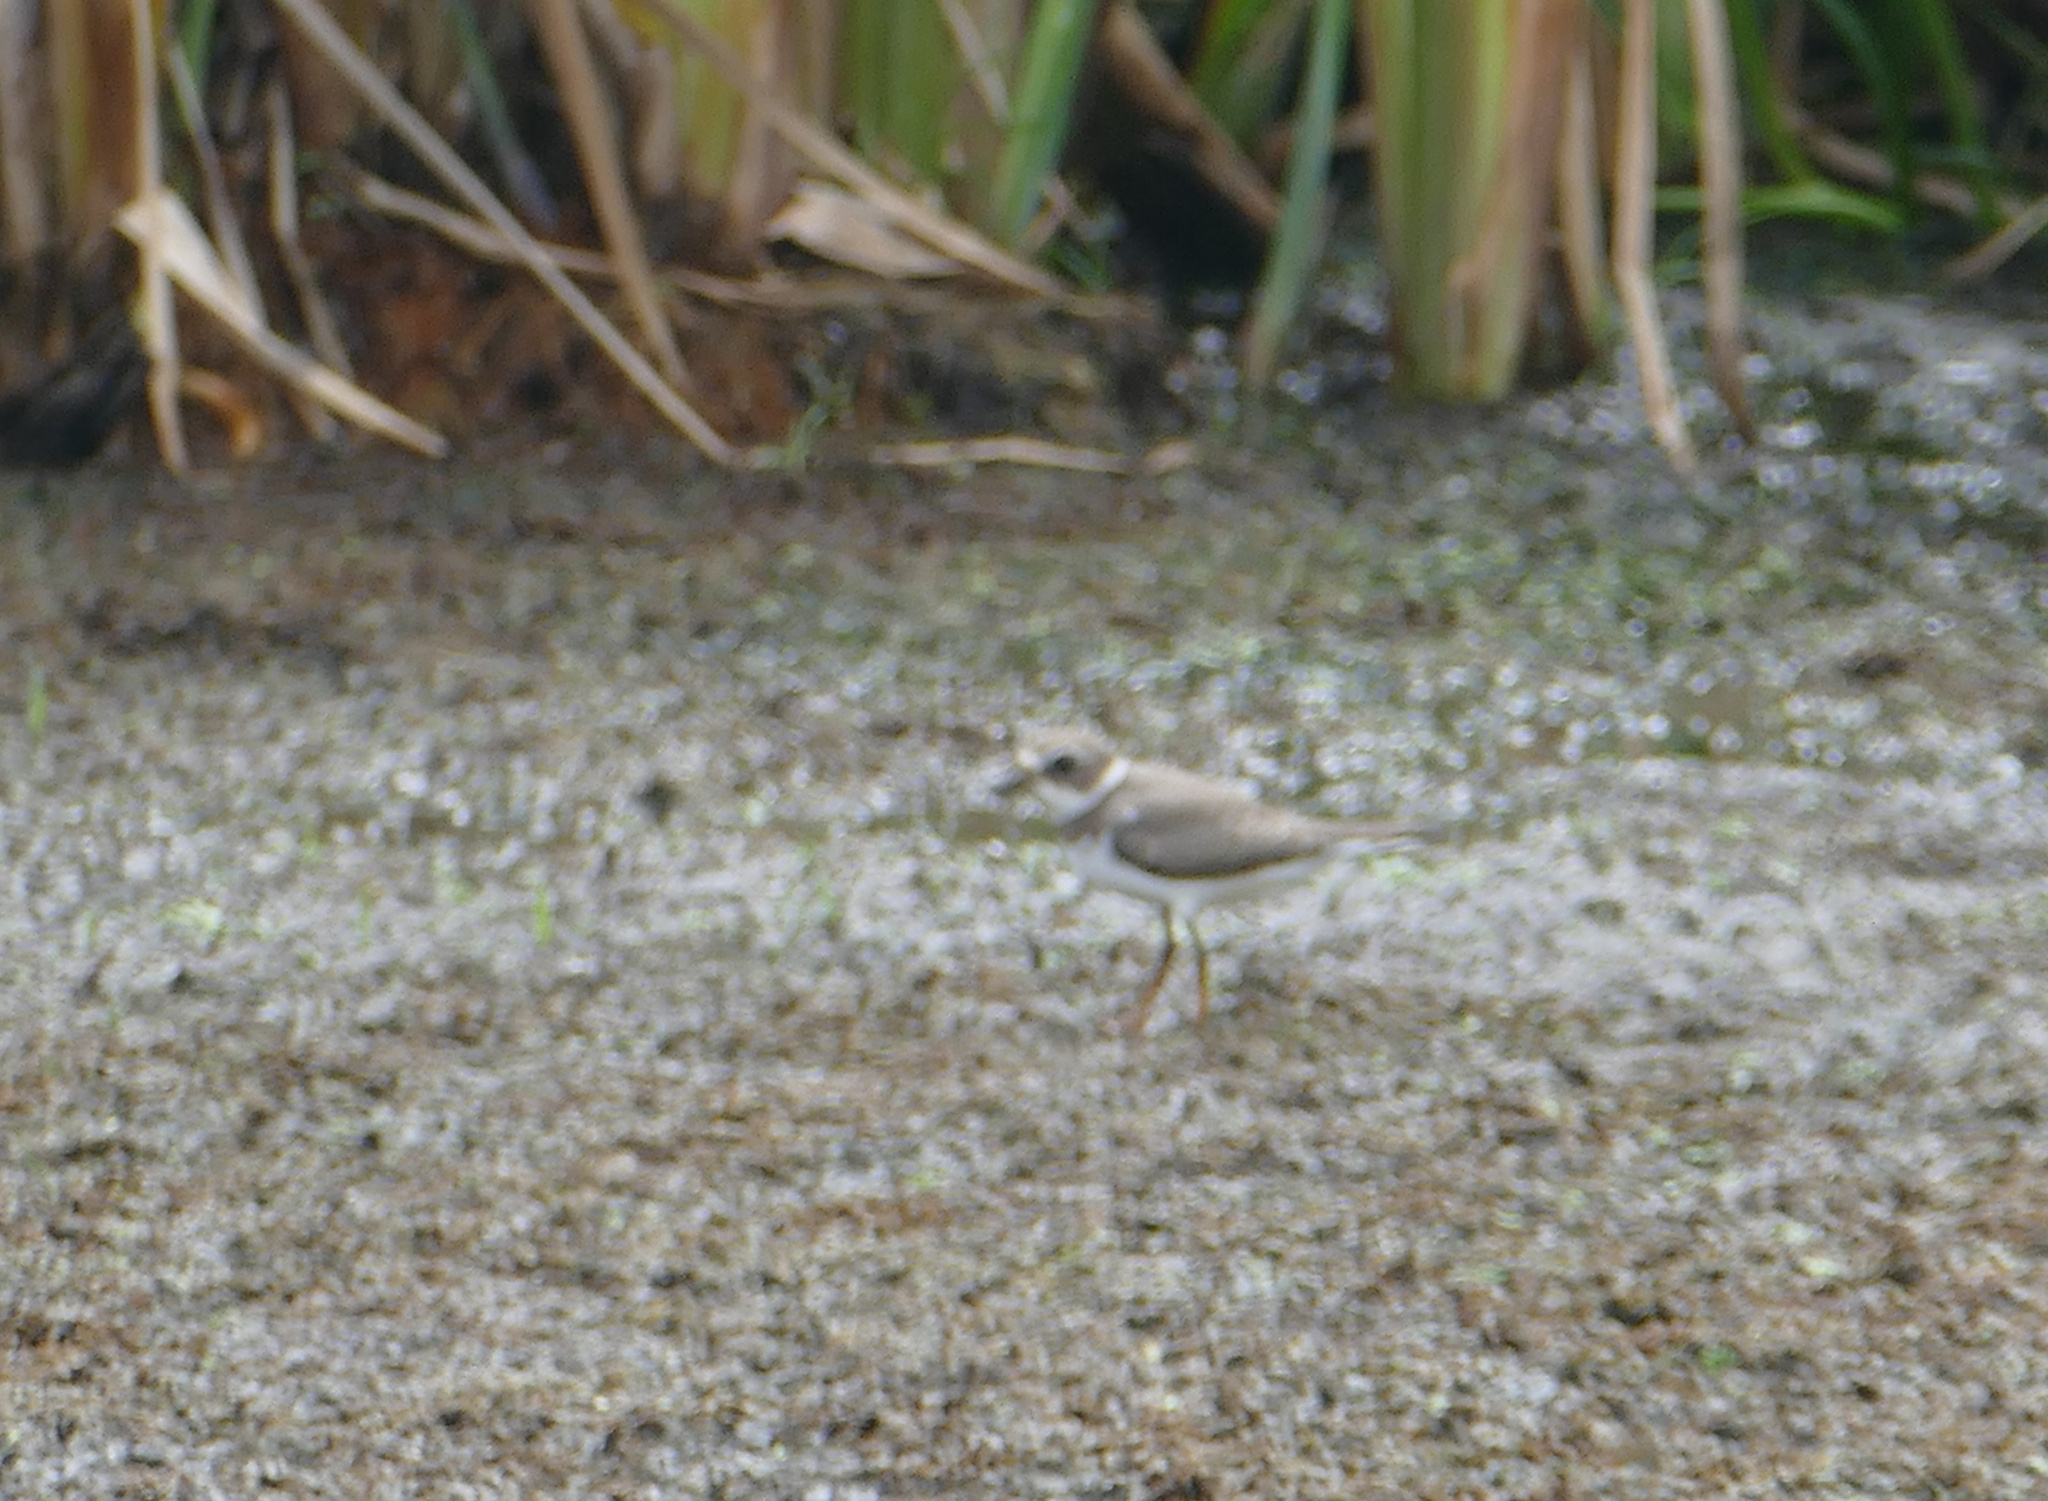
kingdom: Animalia
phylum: Chordata
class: Aves
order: Charadriiformes
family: Charadriidae
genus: Charadrius
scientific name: Charadrius semipalmatus
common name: Semipalmated plover
